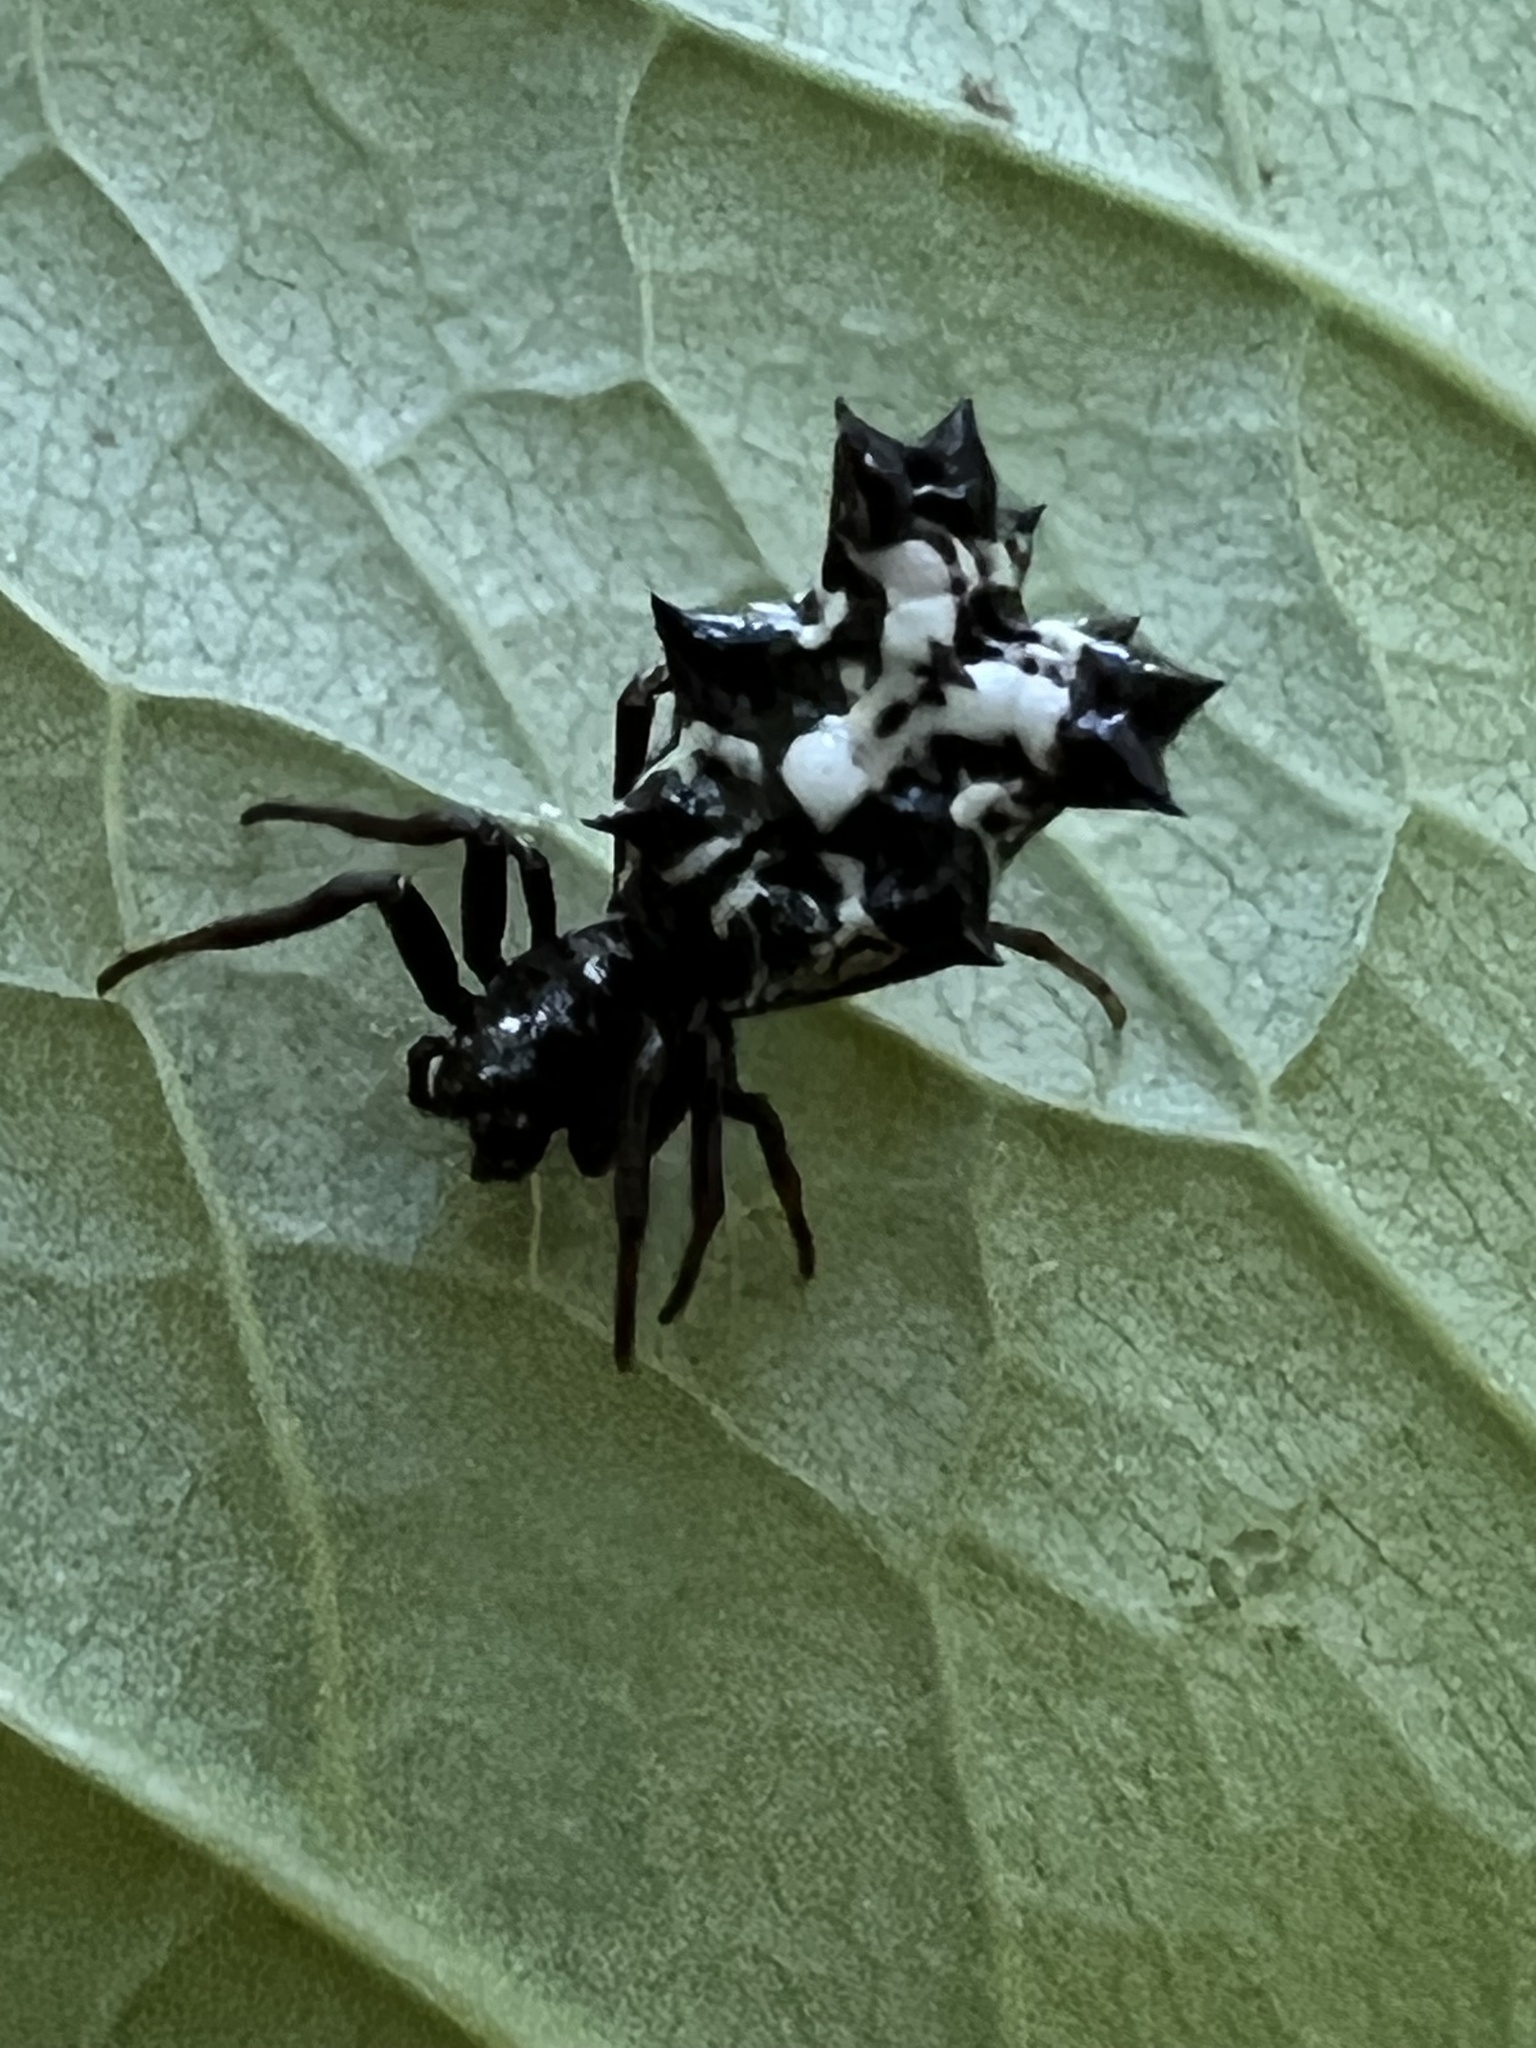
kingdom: Animalia
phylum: Arthropoda
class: Arachnida
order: Araneae
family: Araneidae
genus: Micrathena
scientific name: Micrathena gracilis
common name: Orb weavers
